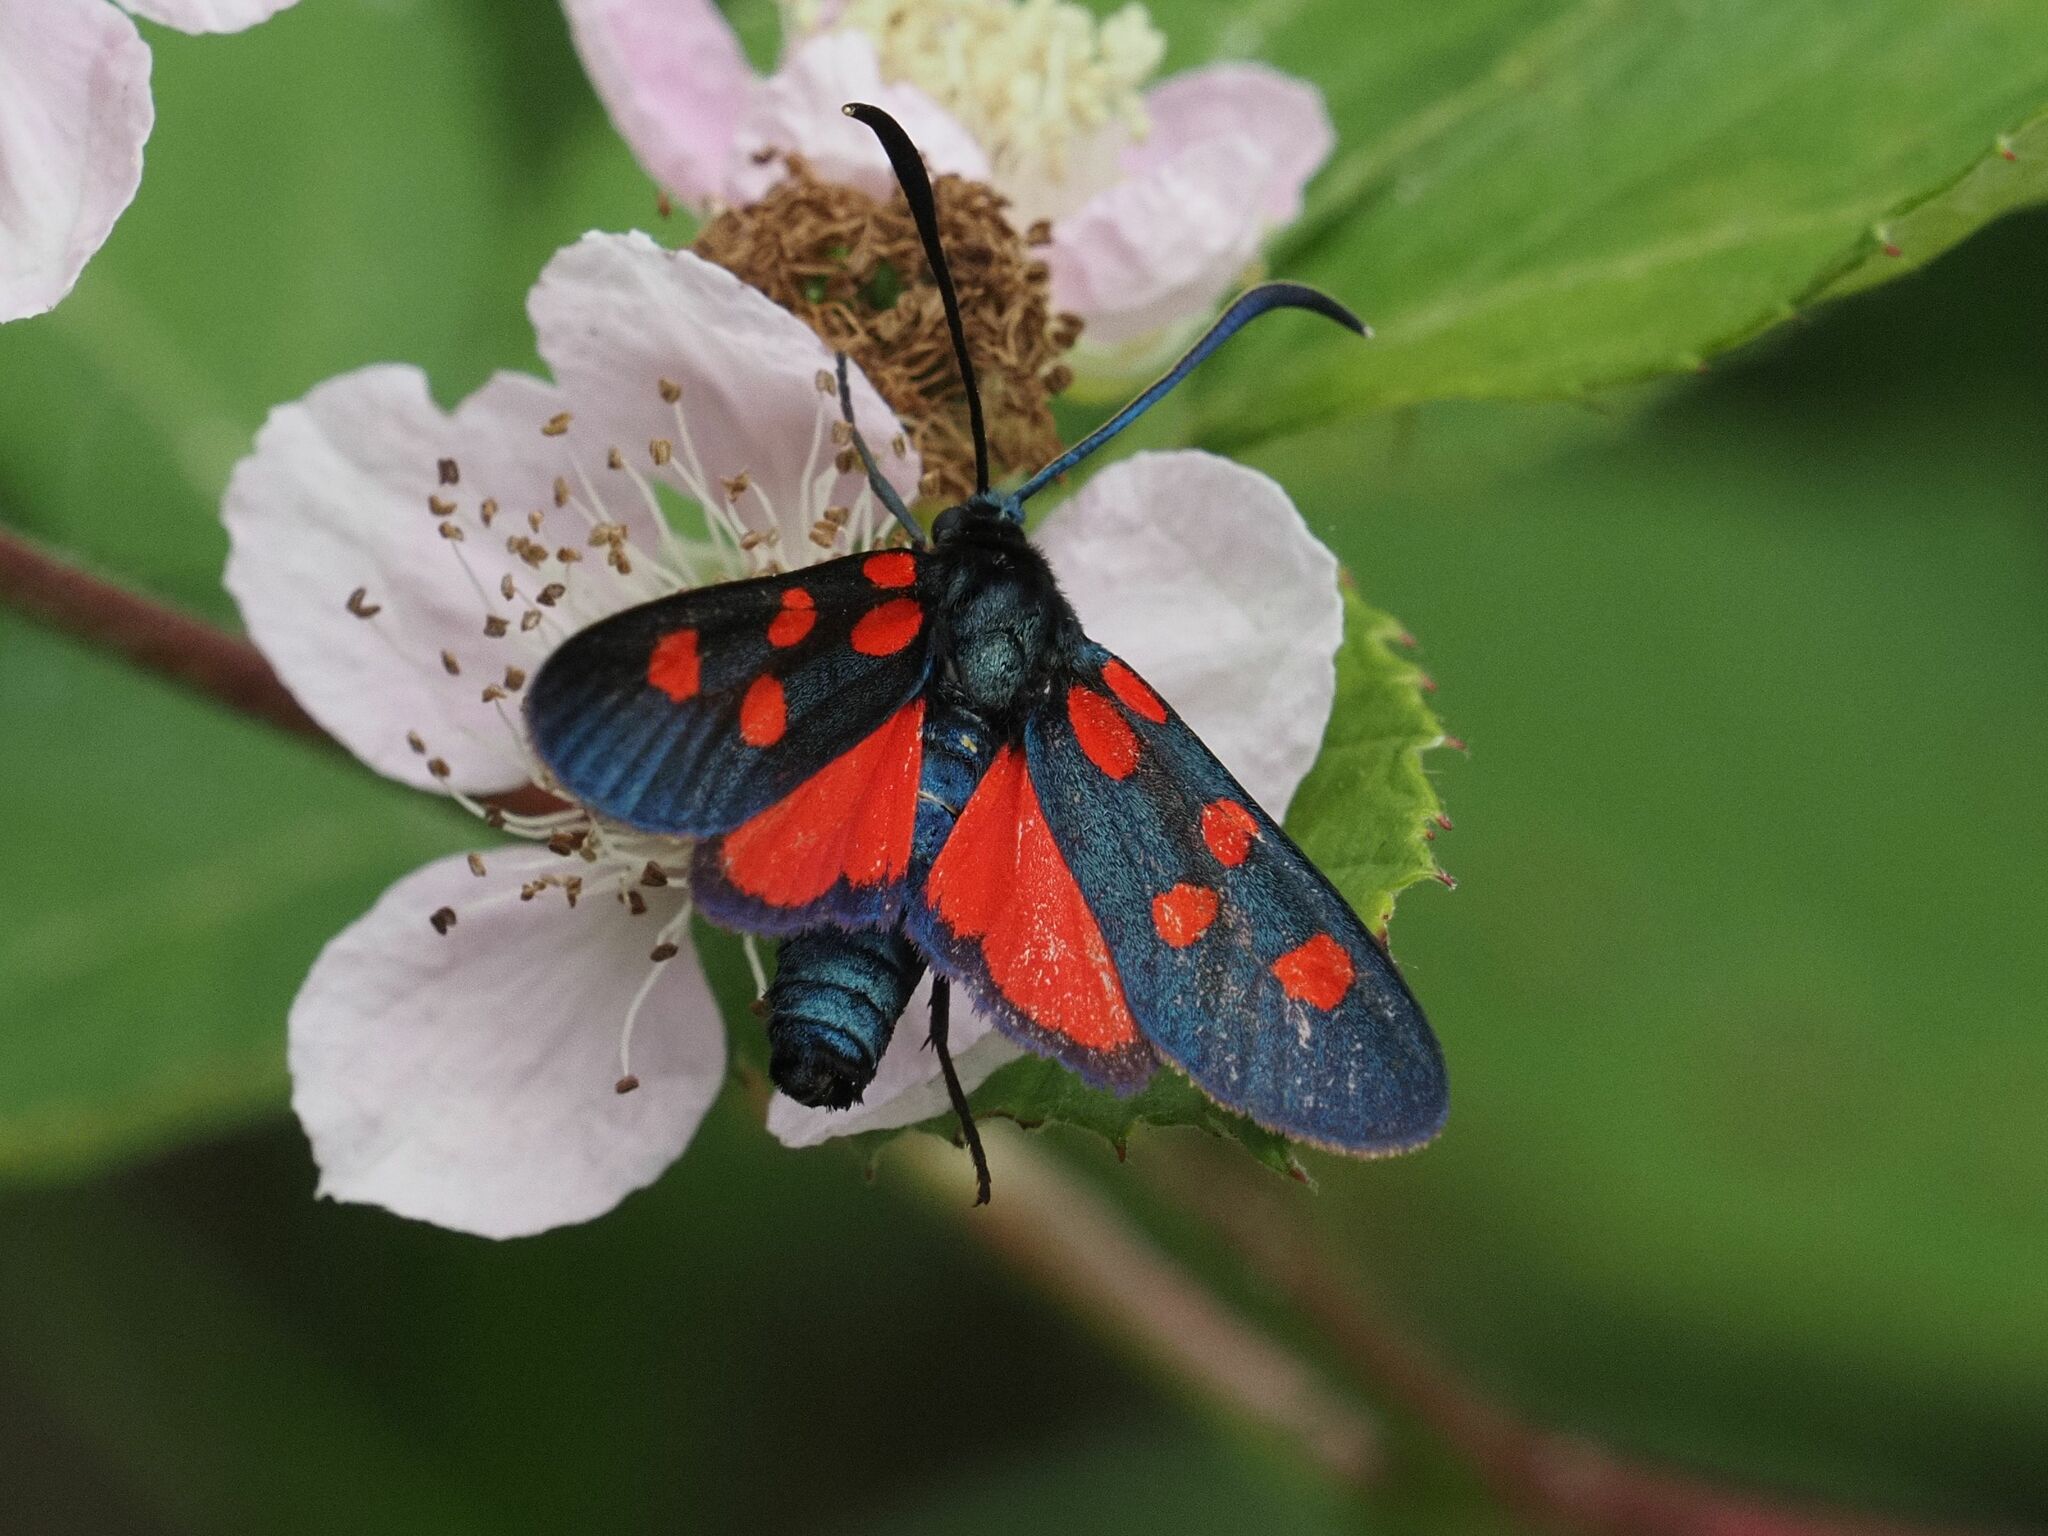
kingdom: Animalia
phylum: Arthropoda
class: Insecta
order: Lepidoptera
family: Zygaenidae
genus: Zygaena
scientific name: Zygaena angelicae
